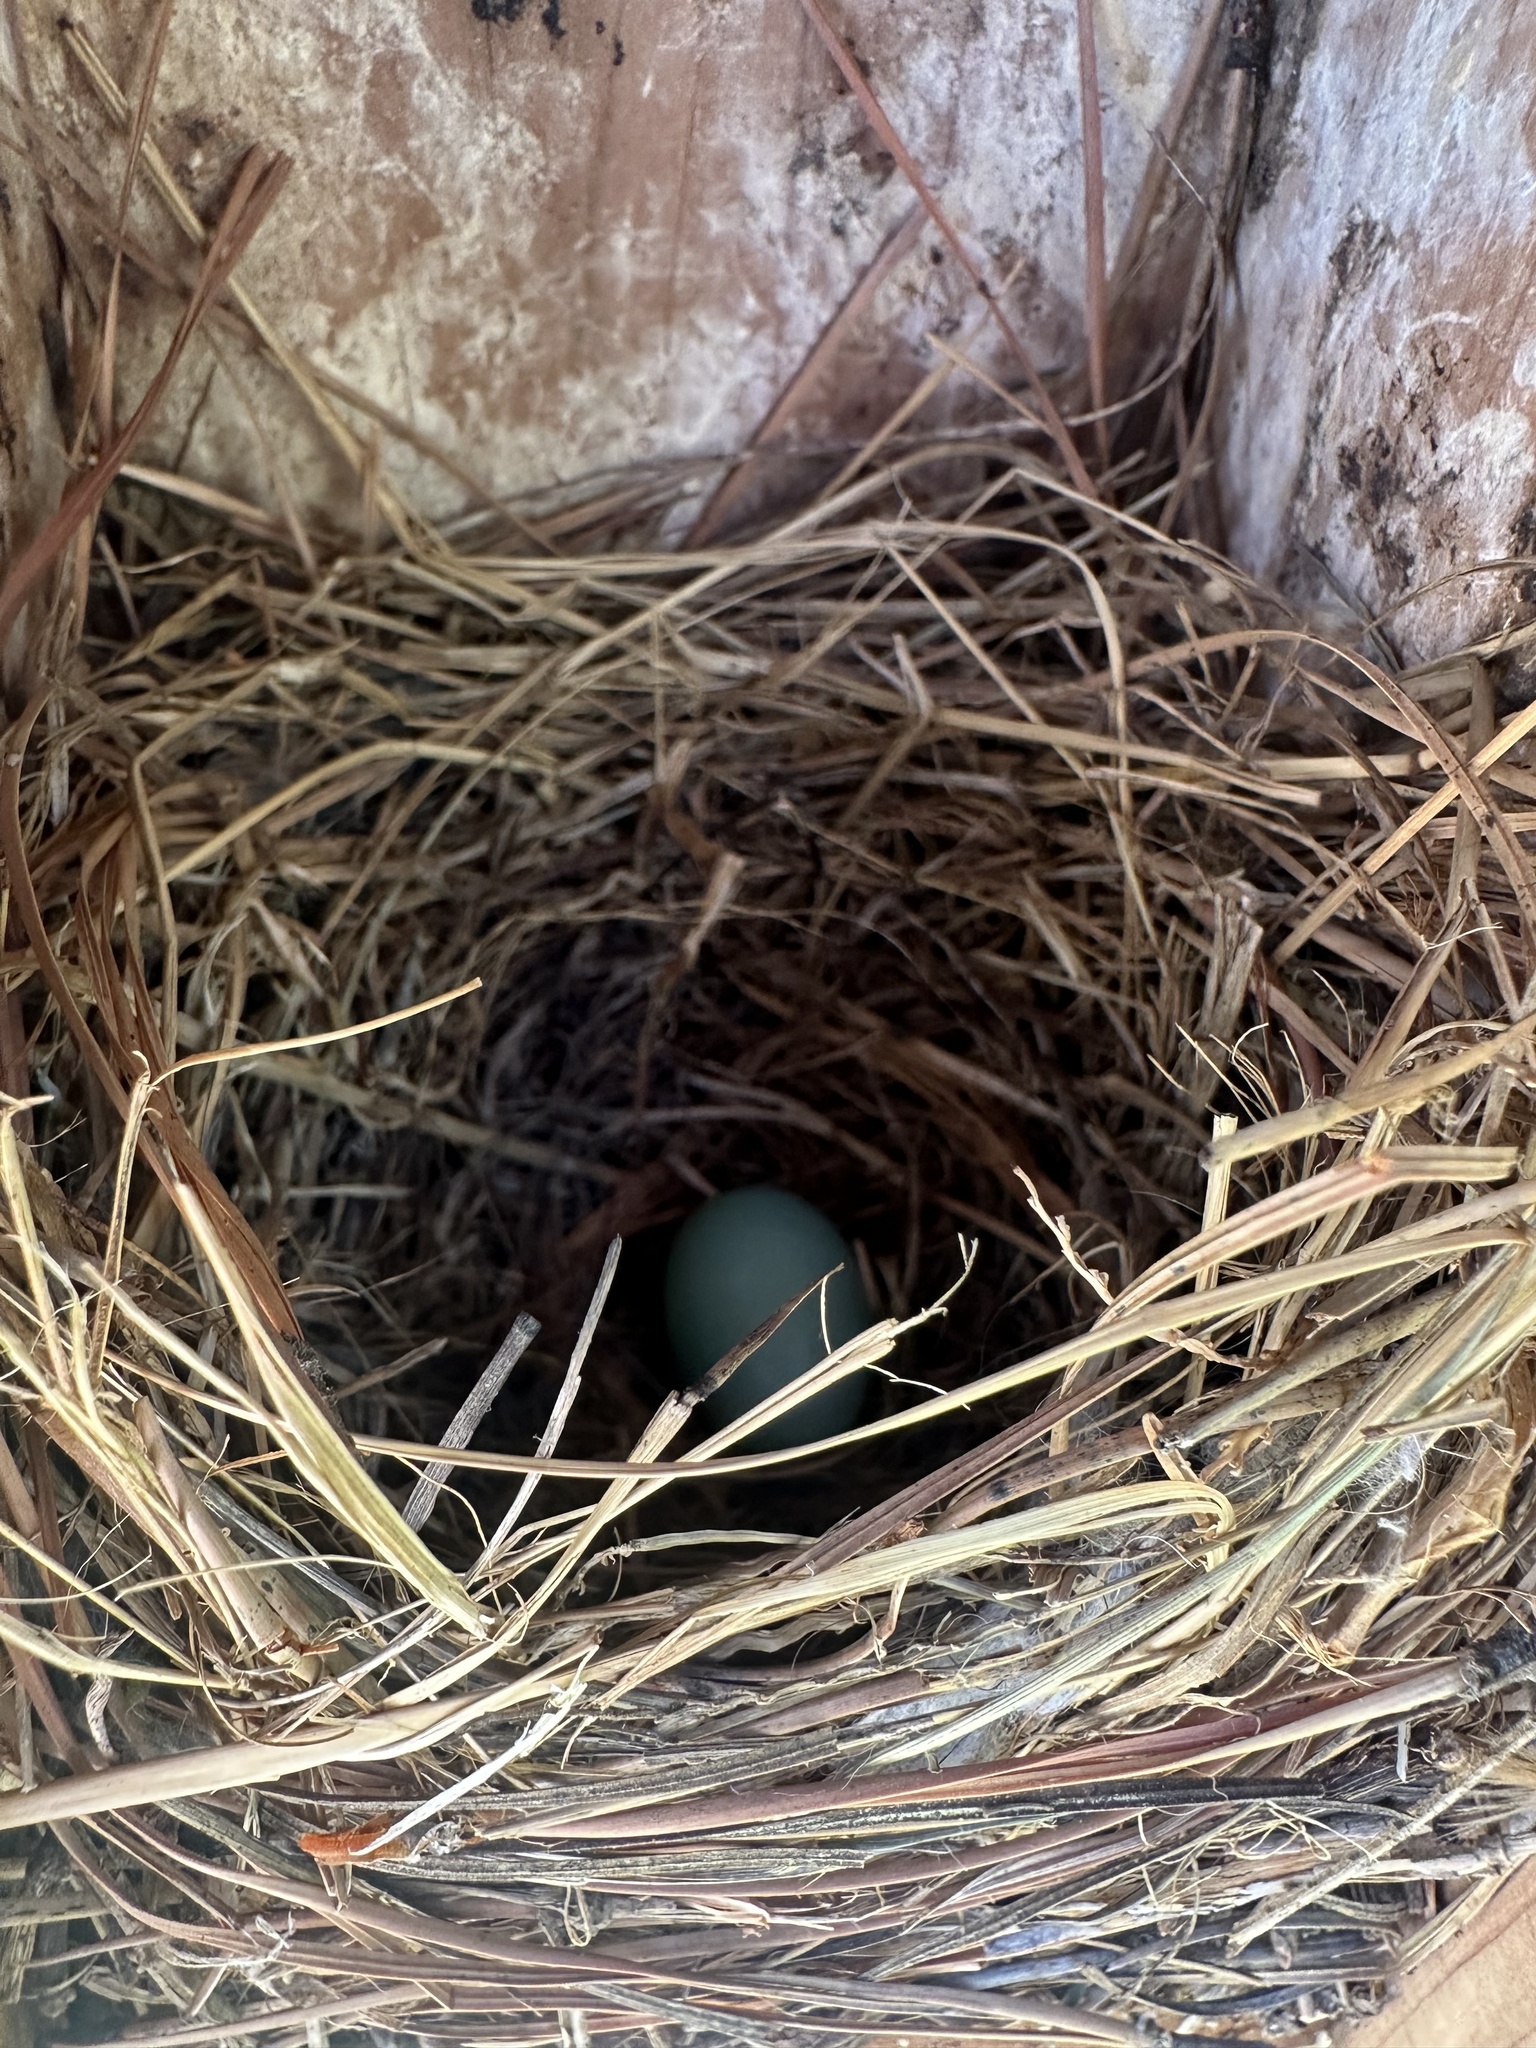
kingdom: Animalia
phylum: Chordata
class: Aves
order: Passeriformes
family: Turdidae
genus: Sialia
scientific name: Sialia sialis
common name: Eastern bluebird
